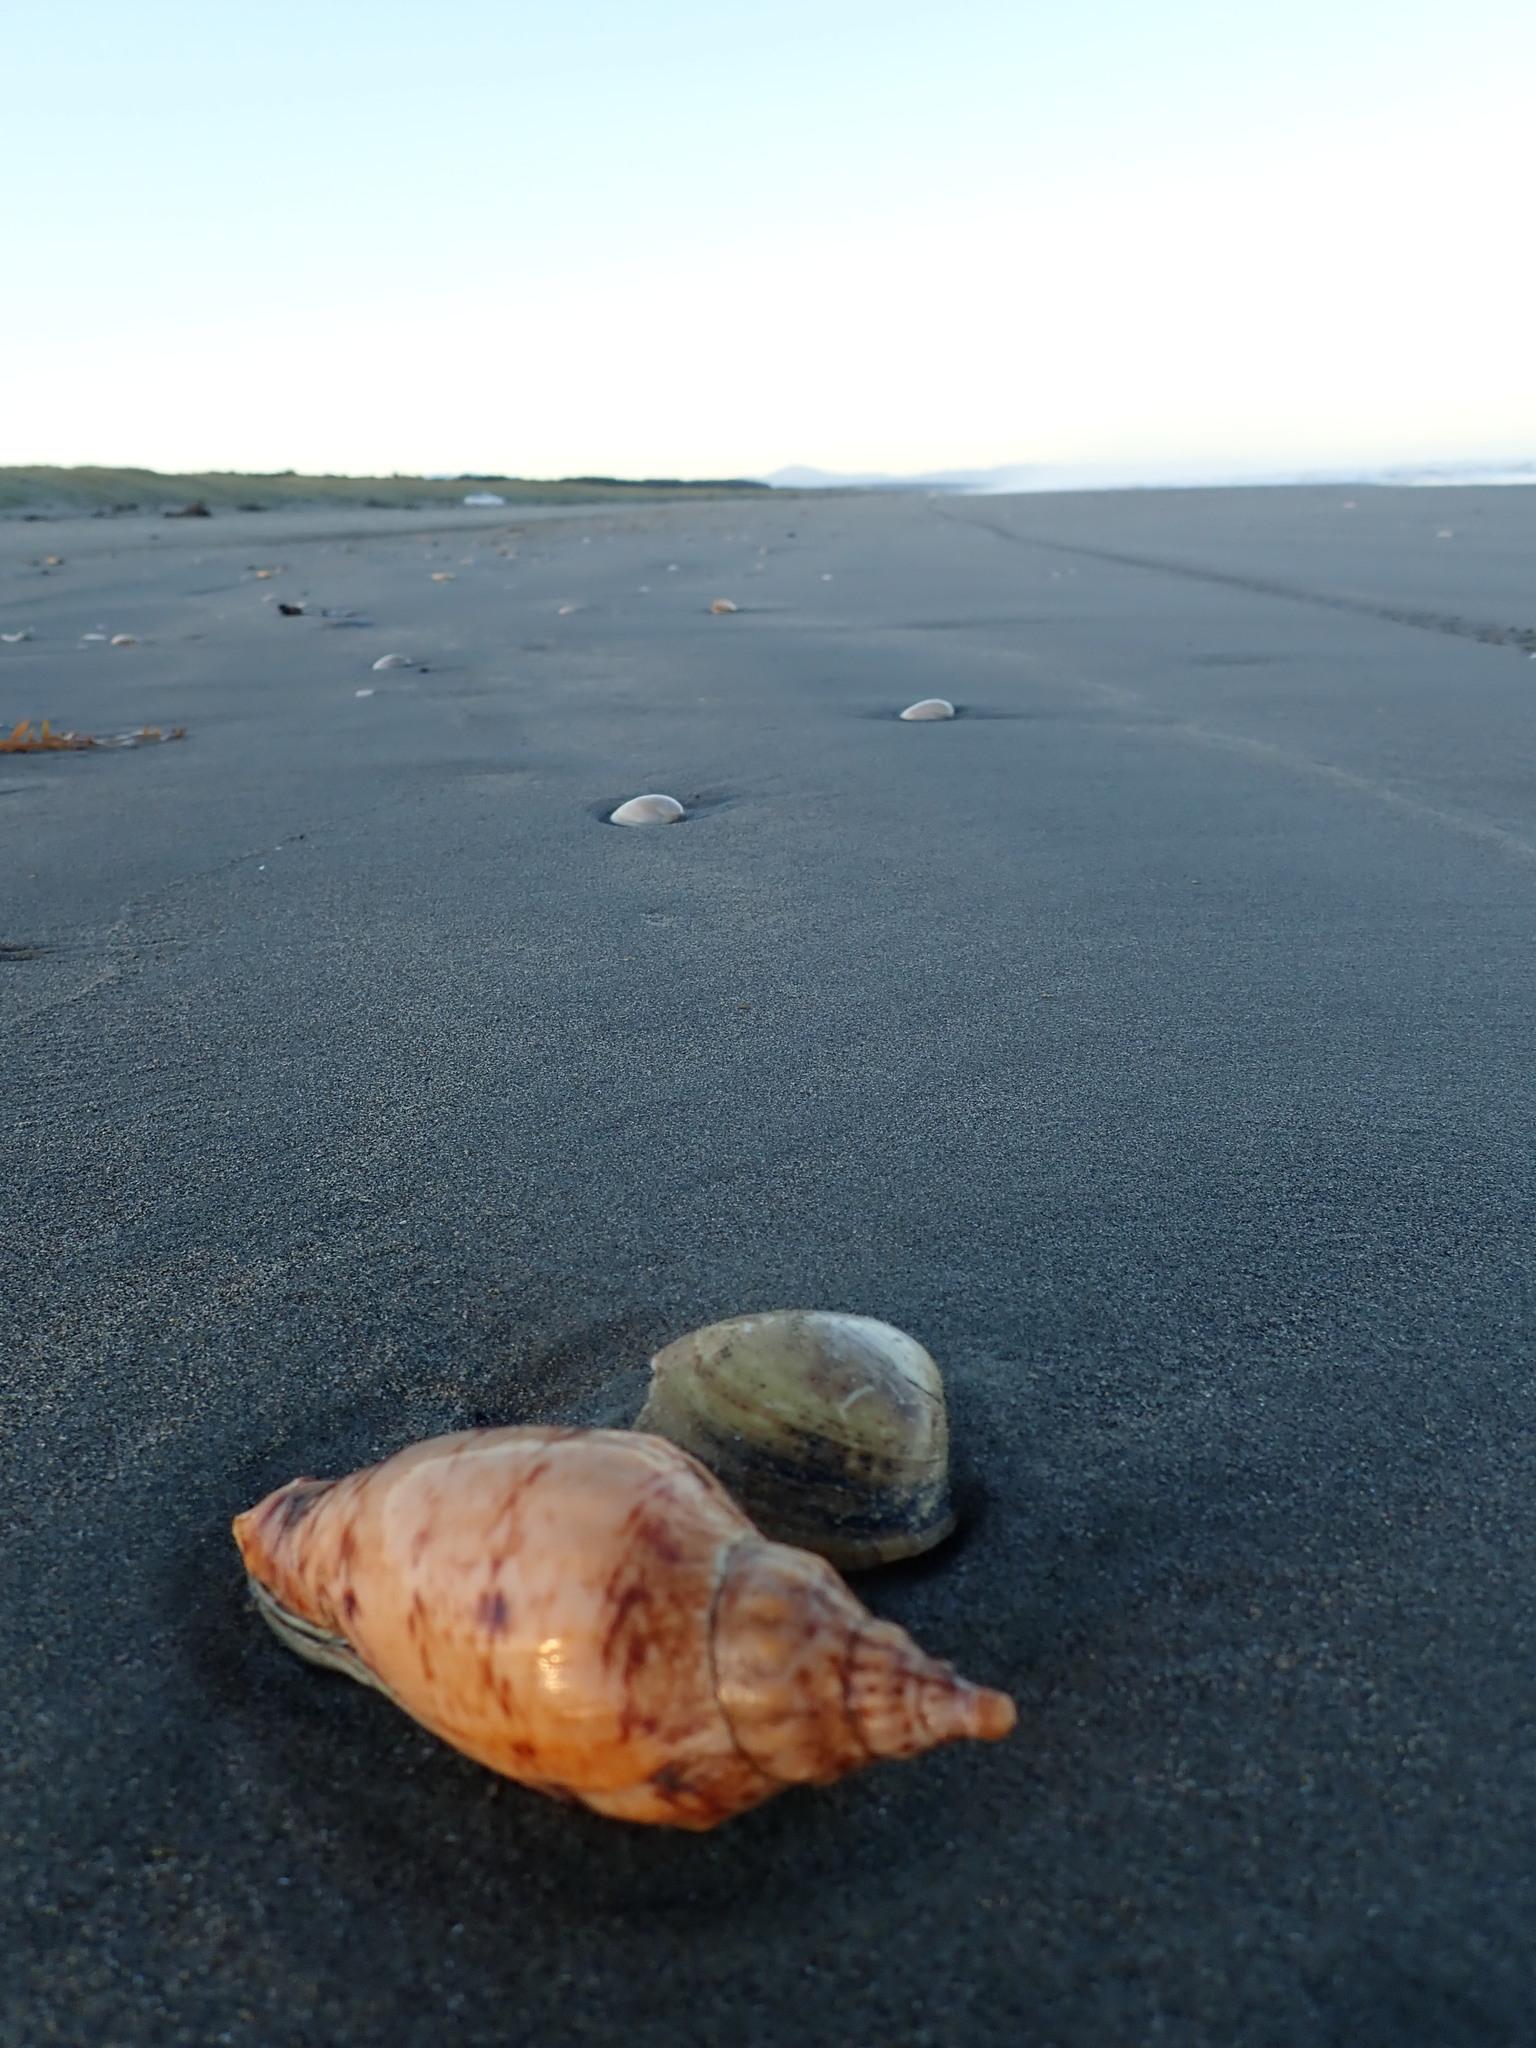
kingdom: Animalia
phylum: Mollusca
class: Gastropoda
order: Neogastropoda
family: Volutidae
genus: Alcithoe
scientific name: Alcithoe arabica
